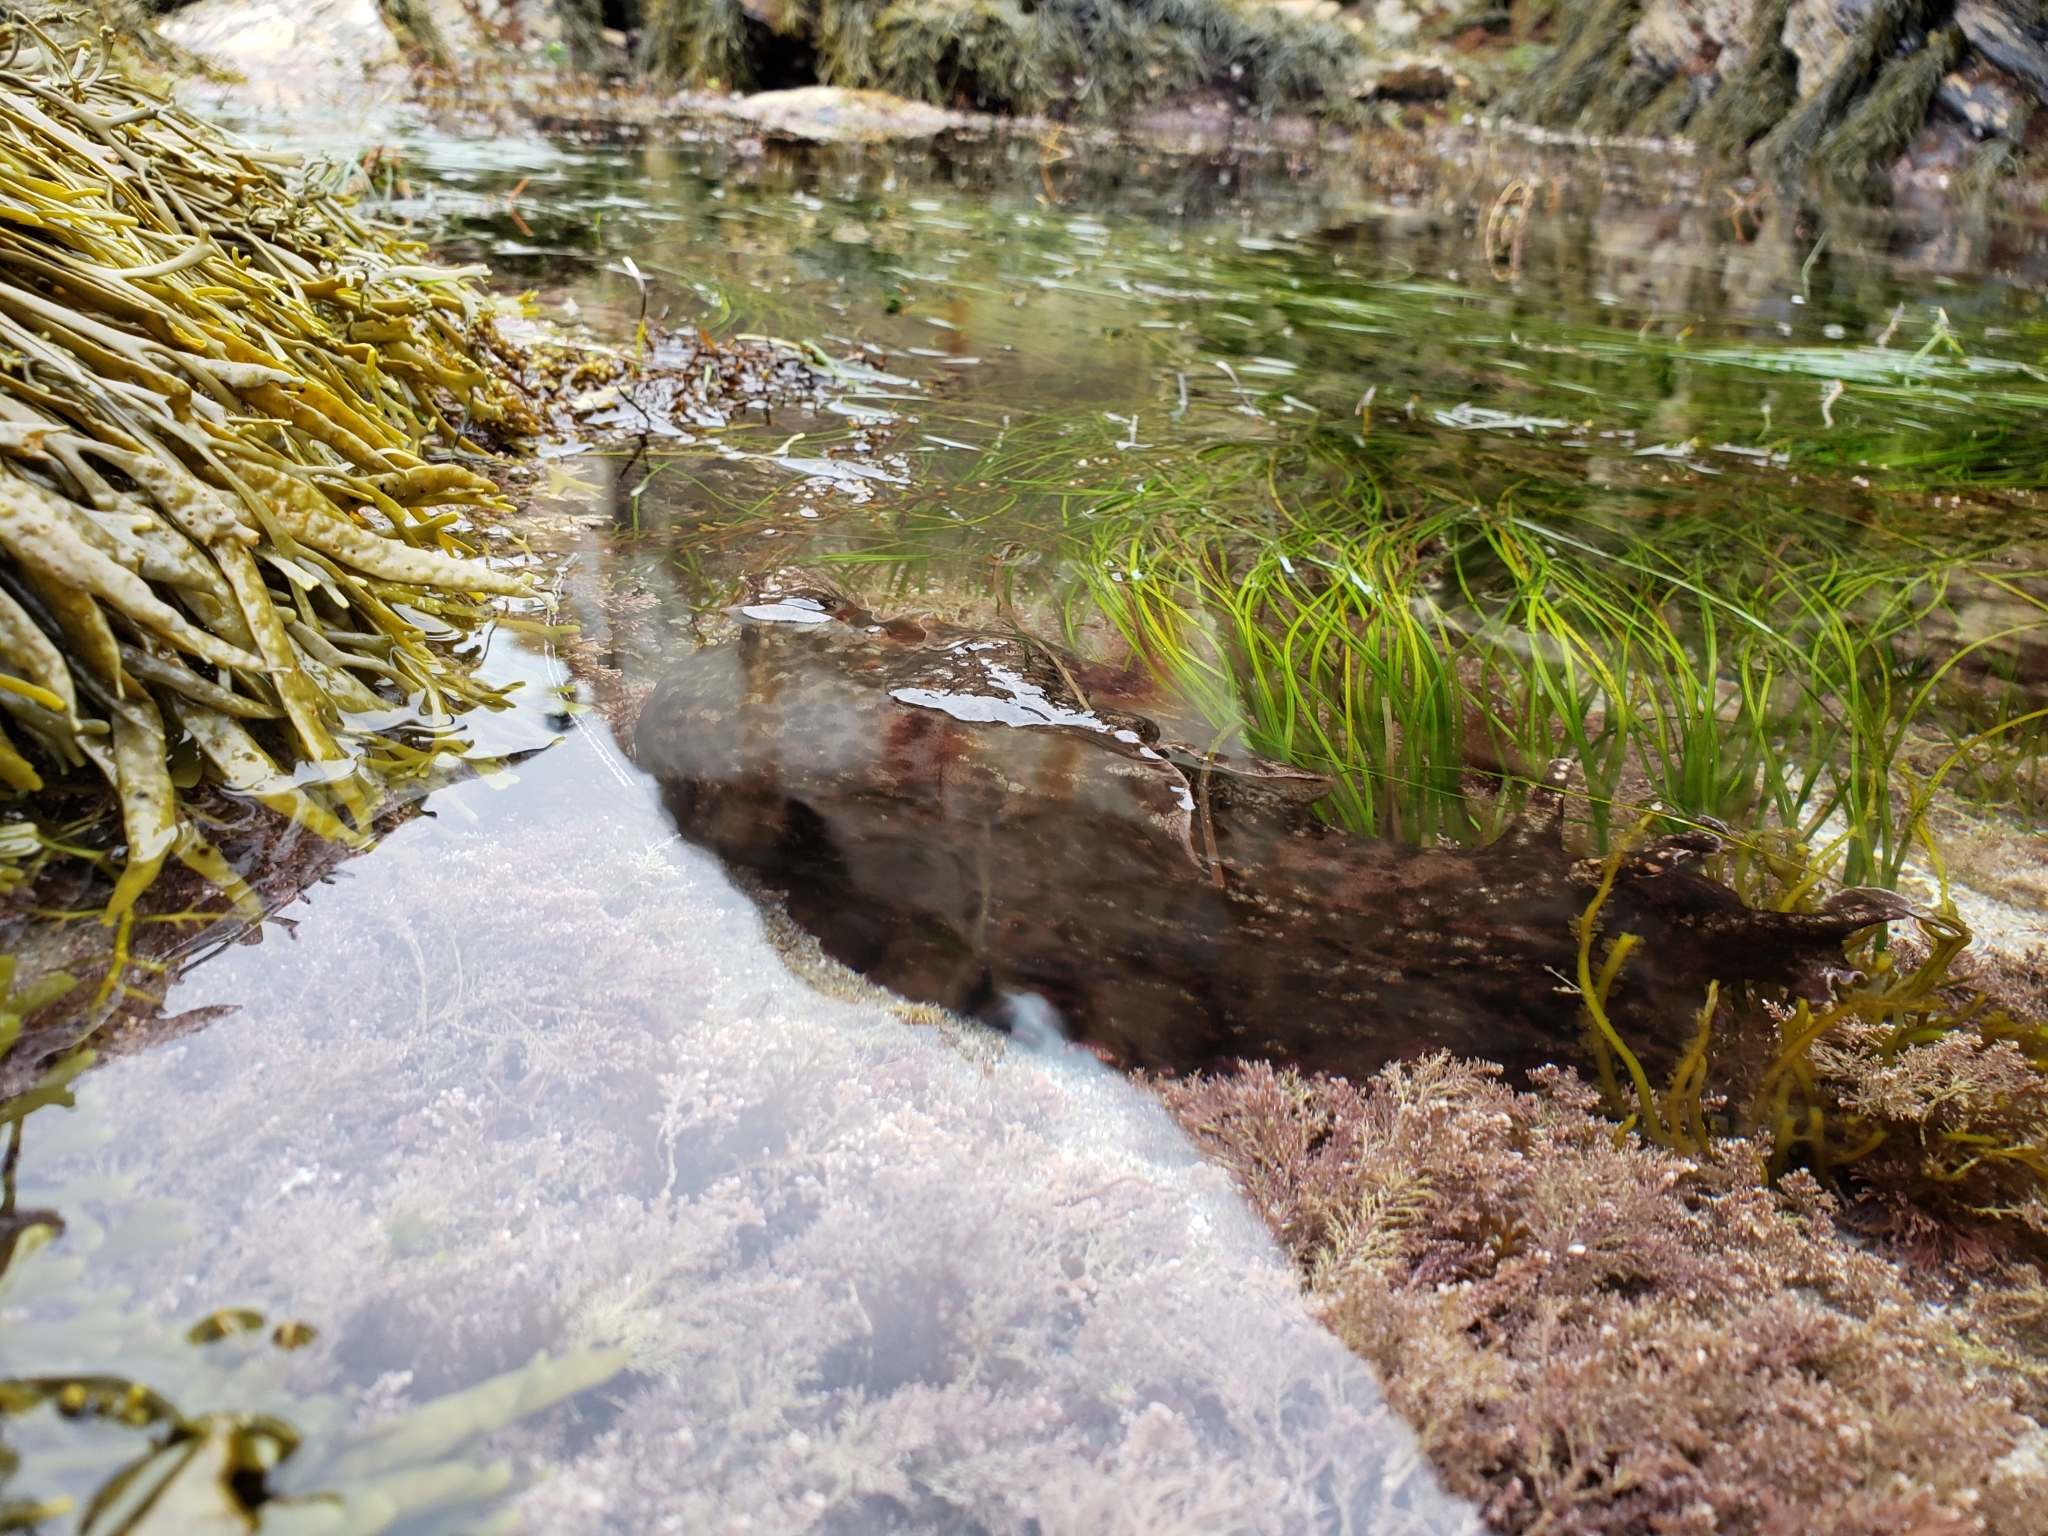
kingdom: Animalia
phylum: Mollusca
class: Gastropoda
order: Aplysiida
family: Aplysiidae
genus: Aplysia
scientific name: Aplysia californica
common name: California seahare
